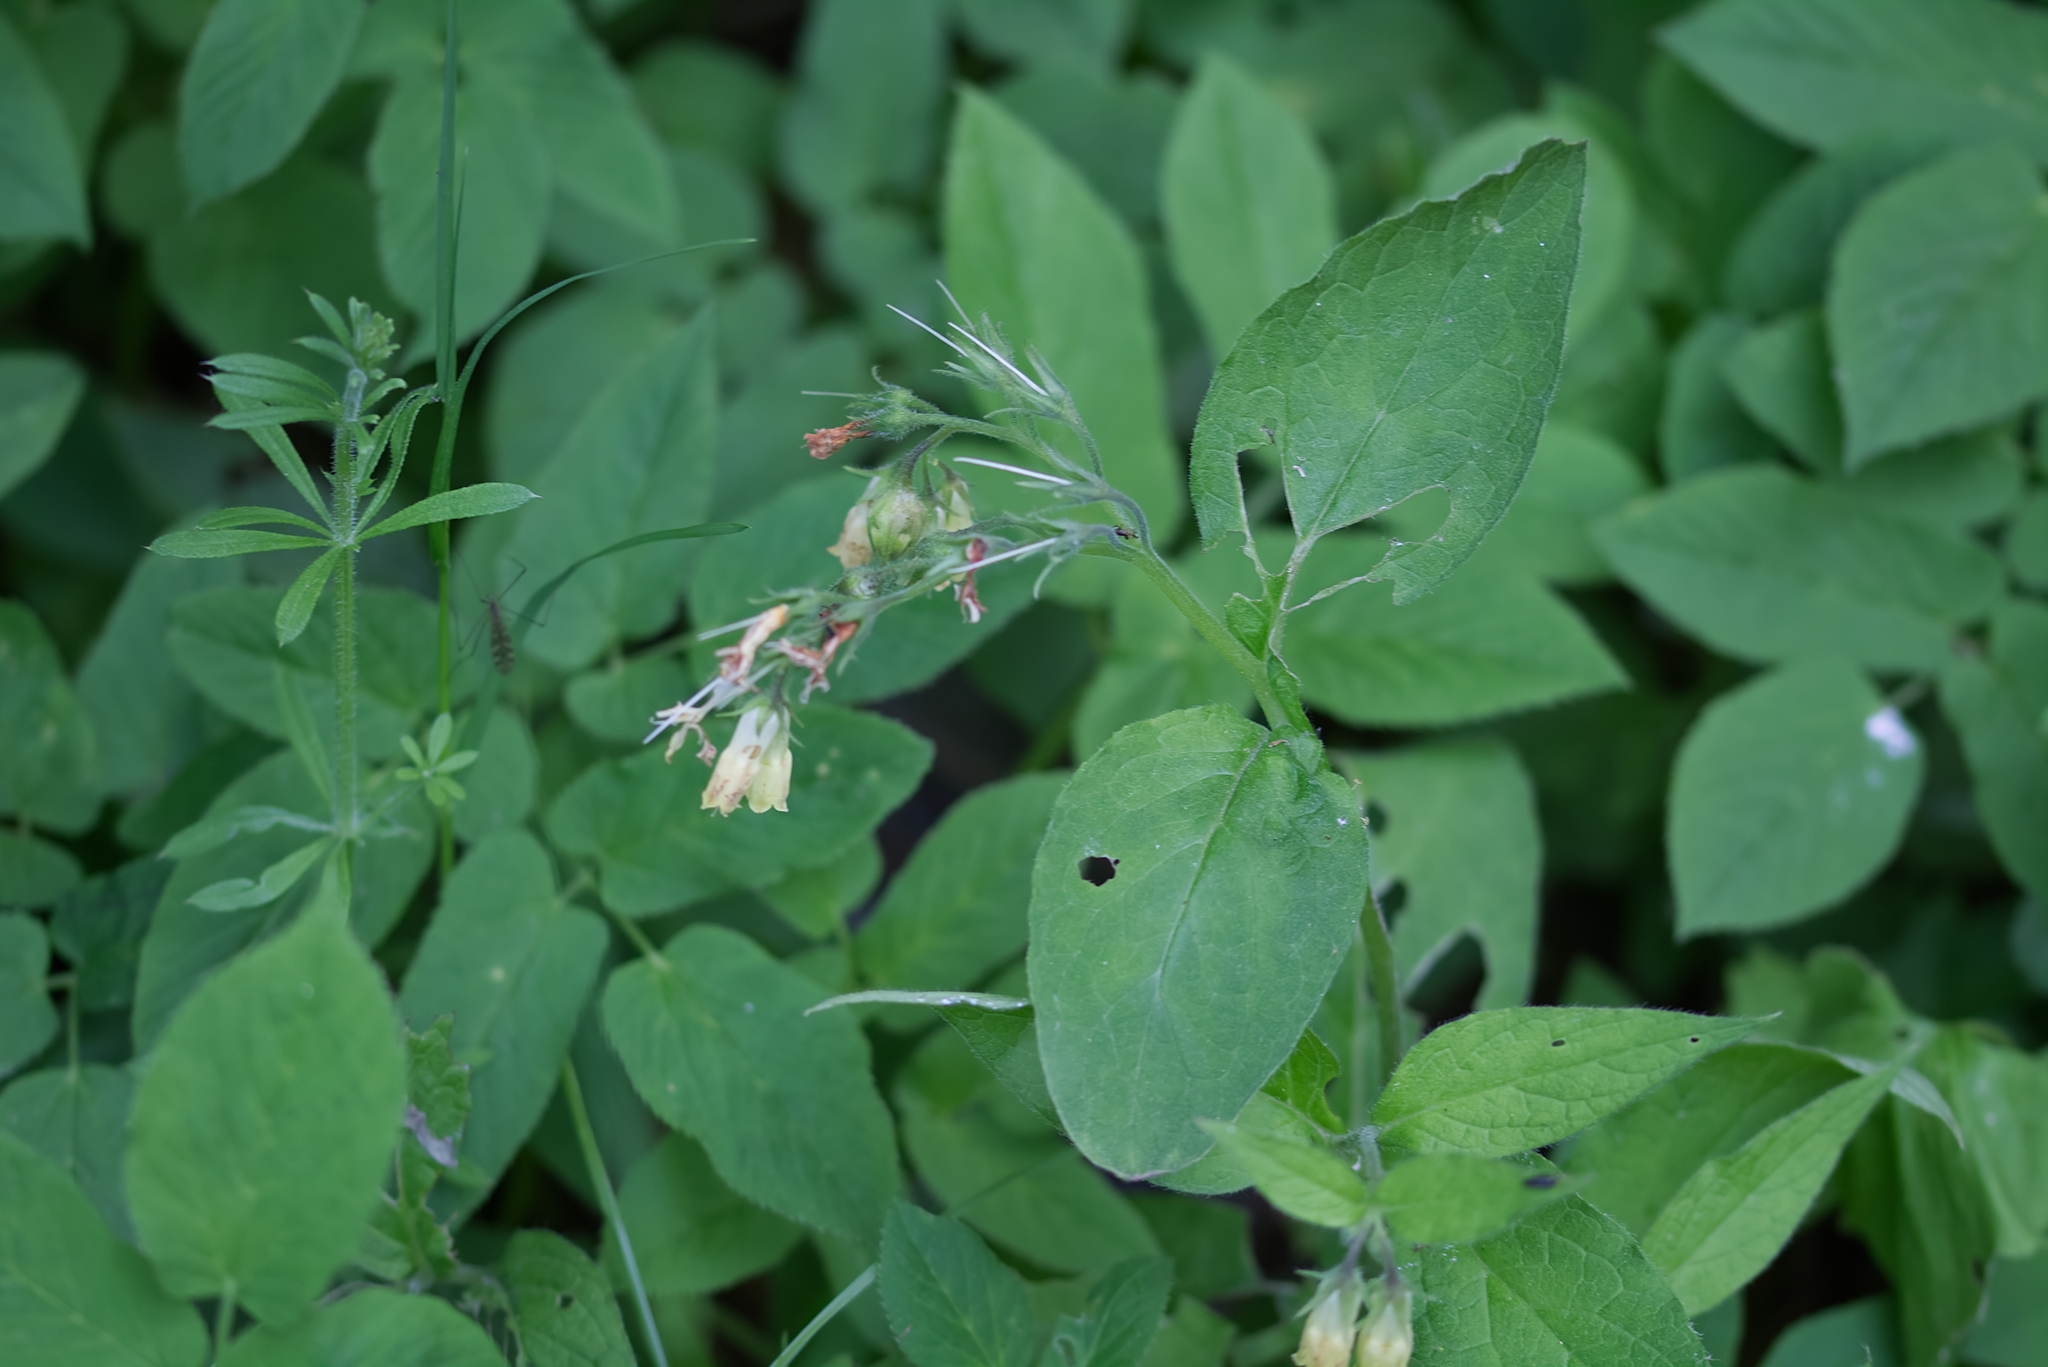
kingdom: Plantae
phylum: Tracheophyta
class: Magnoliopsida
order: Boraginales
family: Boraginaceae
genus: Symphytum
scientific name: Symphytum tuberosum
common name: Tuberous comfrey
